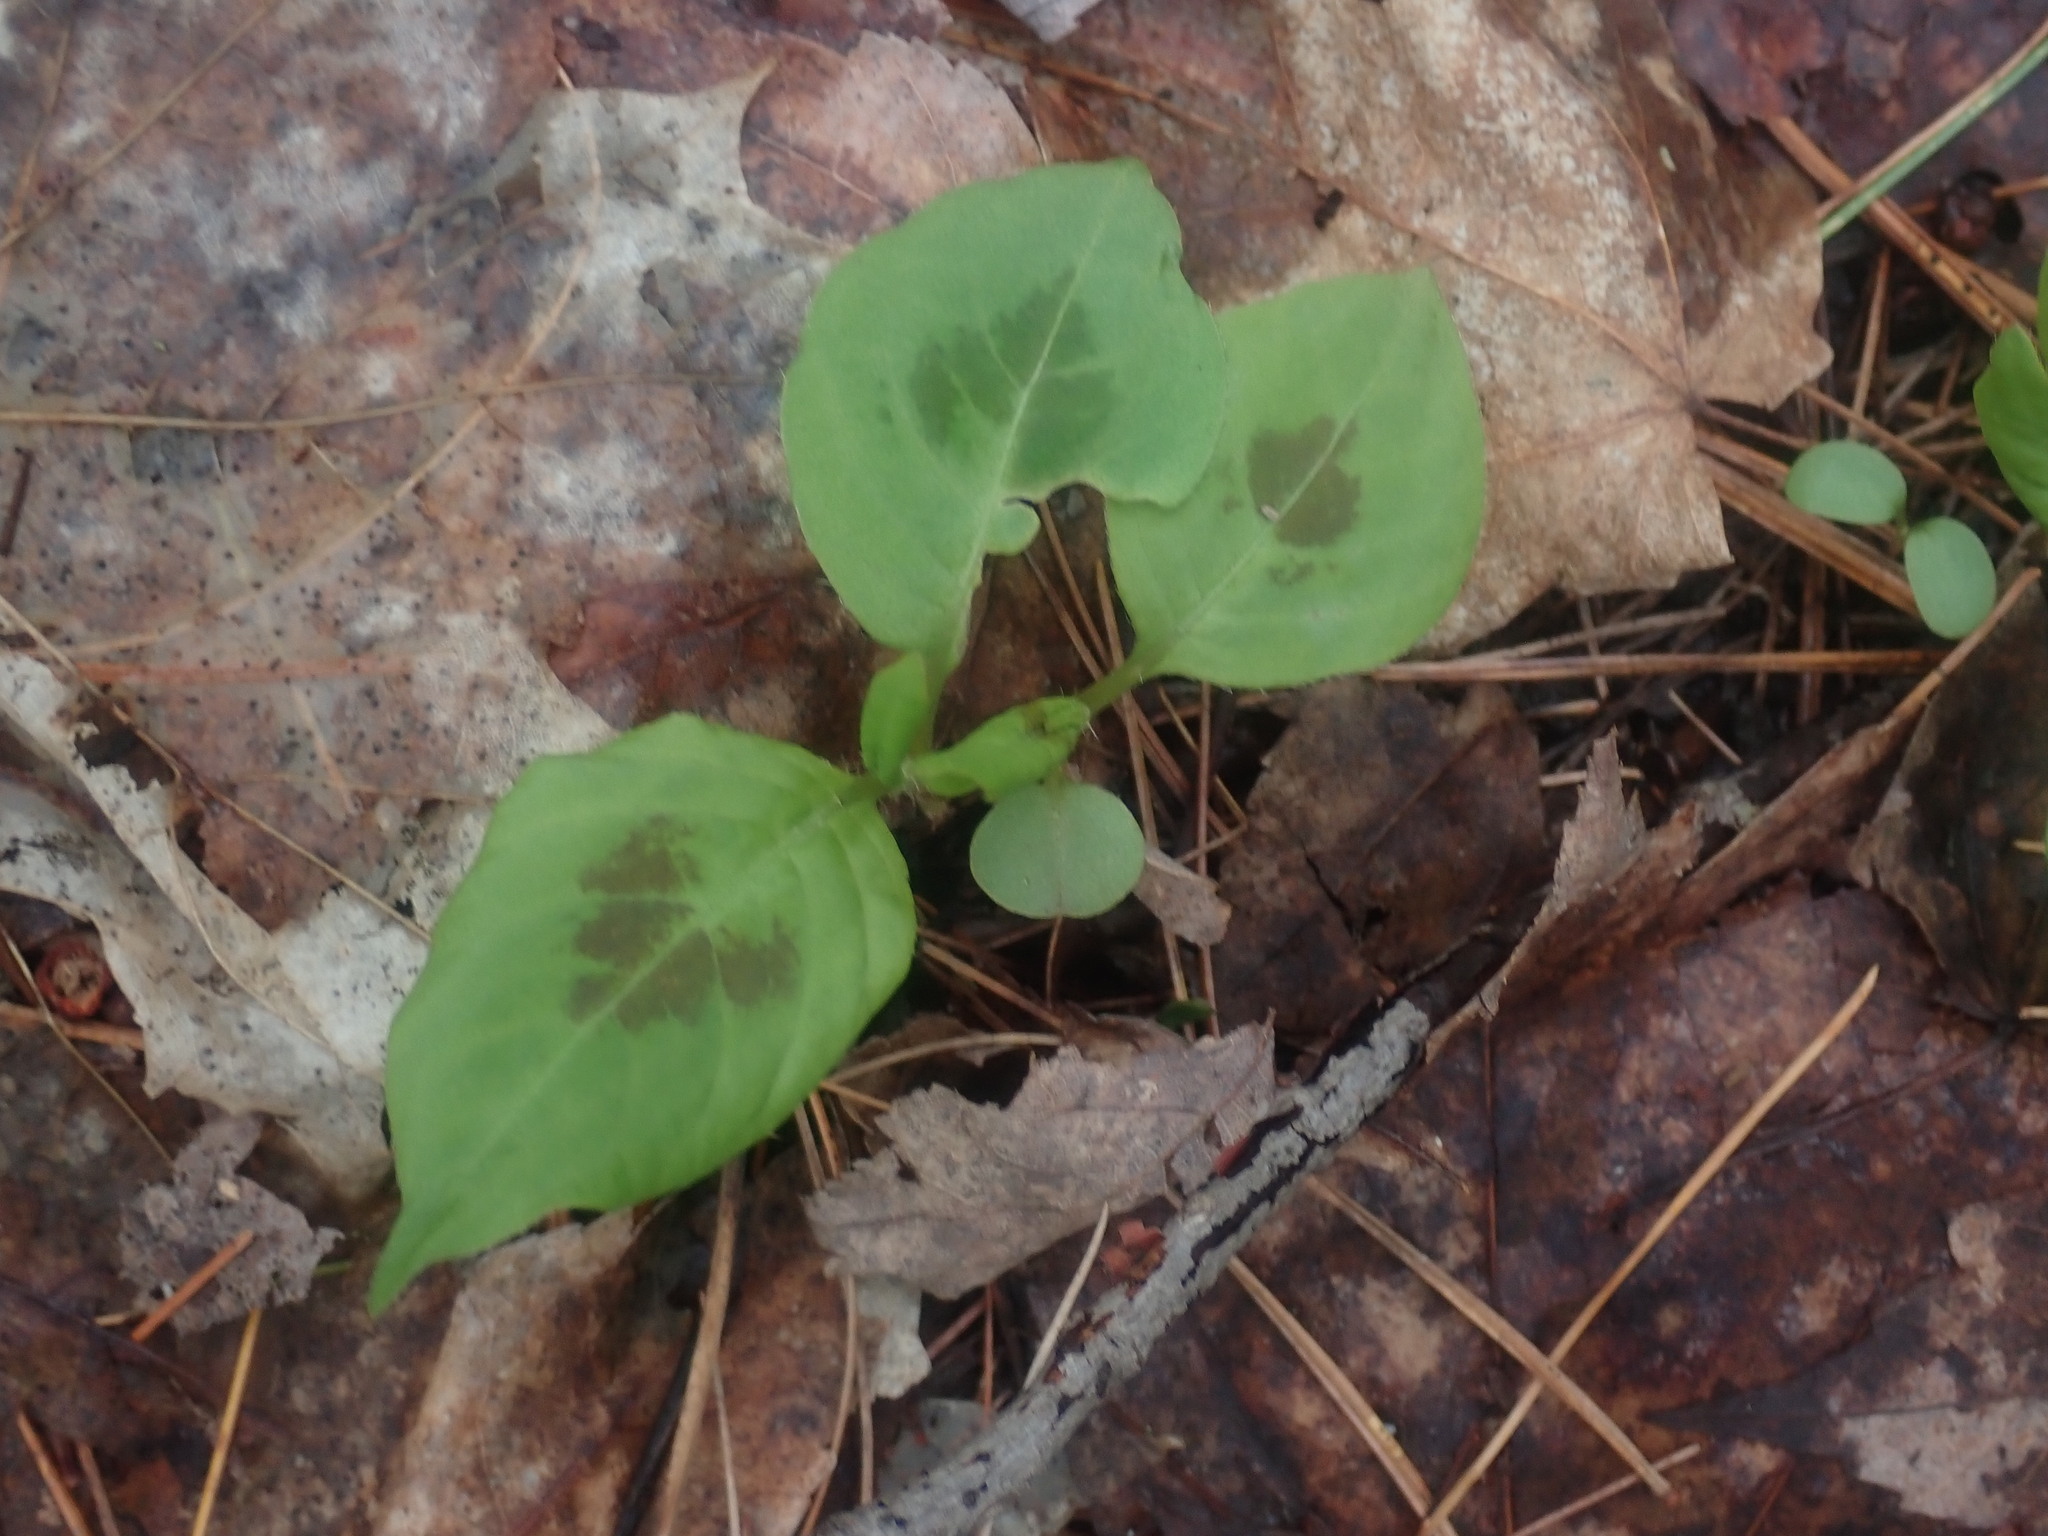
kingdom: Plantae
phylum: Tracheophyta
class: Magnoliopsida
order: Caryophyllales
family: Polygonaceae
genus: Persicaria
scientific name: Persicaria virginiana
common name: Jumpseed
